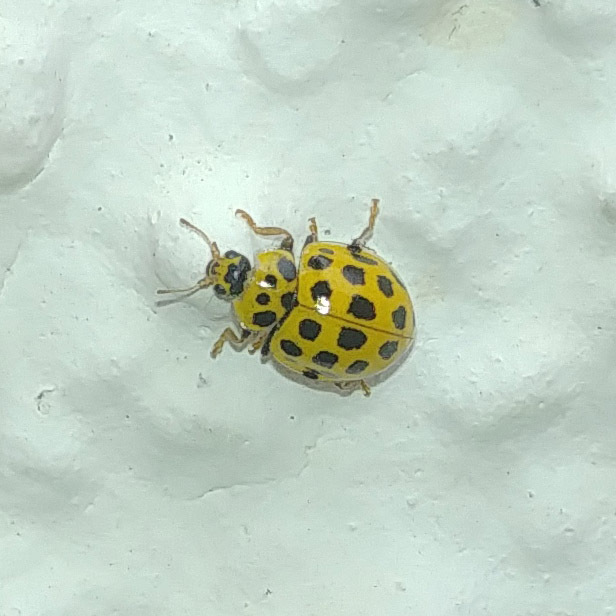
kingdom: Animalia
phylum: Arthropoda
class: Insecta
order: Coleoptera
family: Coccinellidae
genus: Psyllobora
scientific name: Psyllobora vigintiduopunctata
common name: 22-spot ladybird
